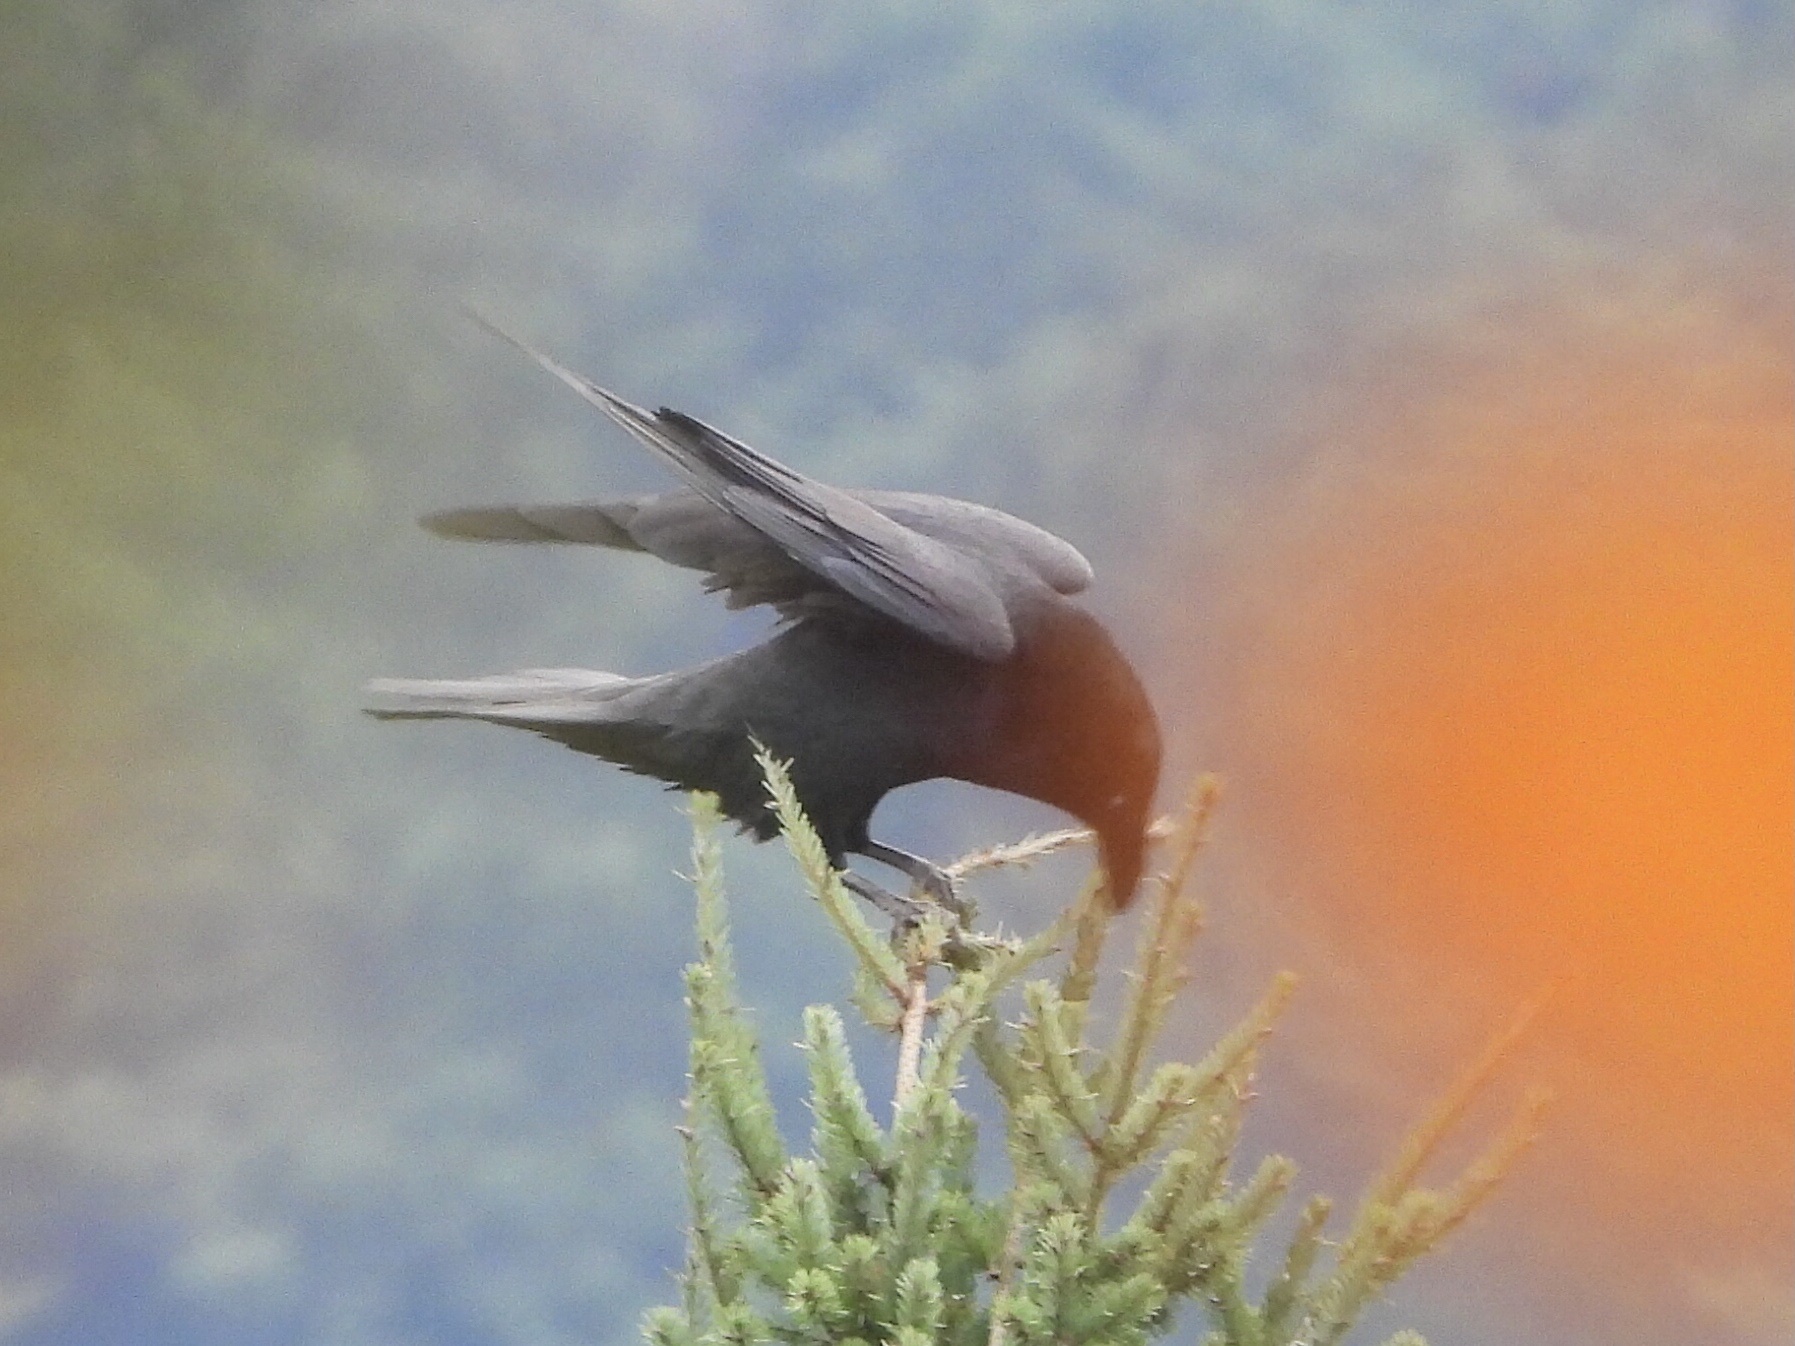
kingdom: Animalia
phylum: Chordata
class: Aves
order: Passeriformes
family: Corvidae
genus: Corvus
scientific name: Corvus corax
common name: Common raven
